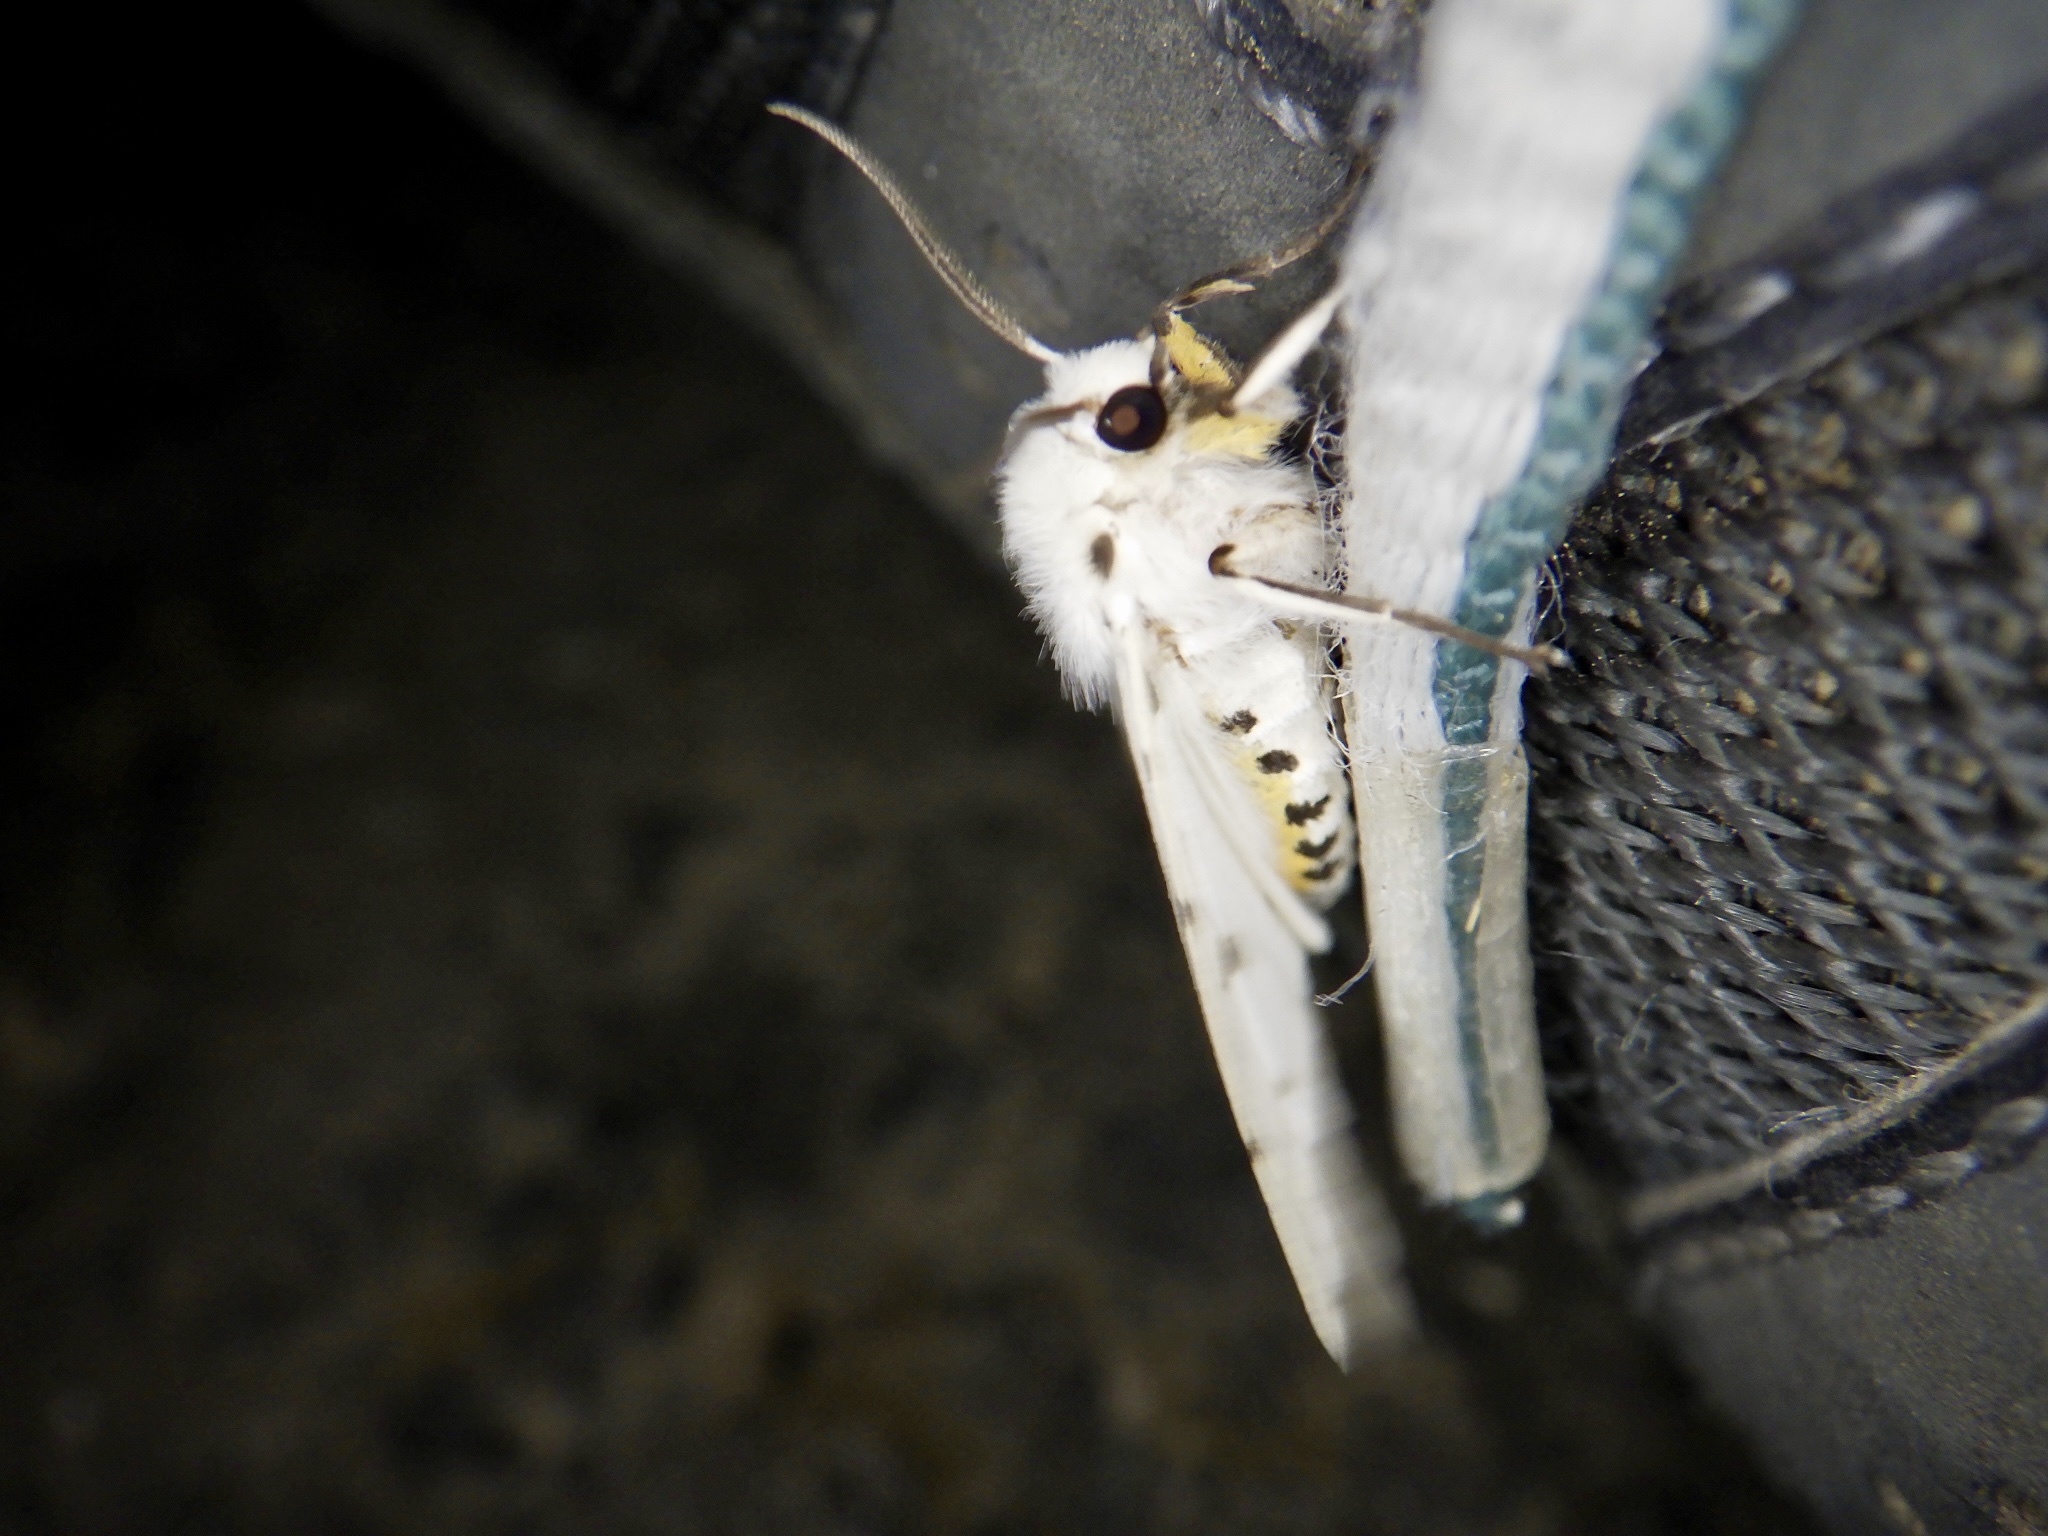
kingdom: Animalia
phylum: Arthropoda
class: Insecta
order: Lepidoptera
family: Erebidae
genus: Spilosoma
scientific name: Spilosoma lubricipeda
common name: White ermine
